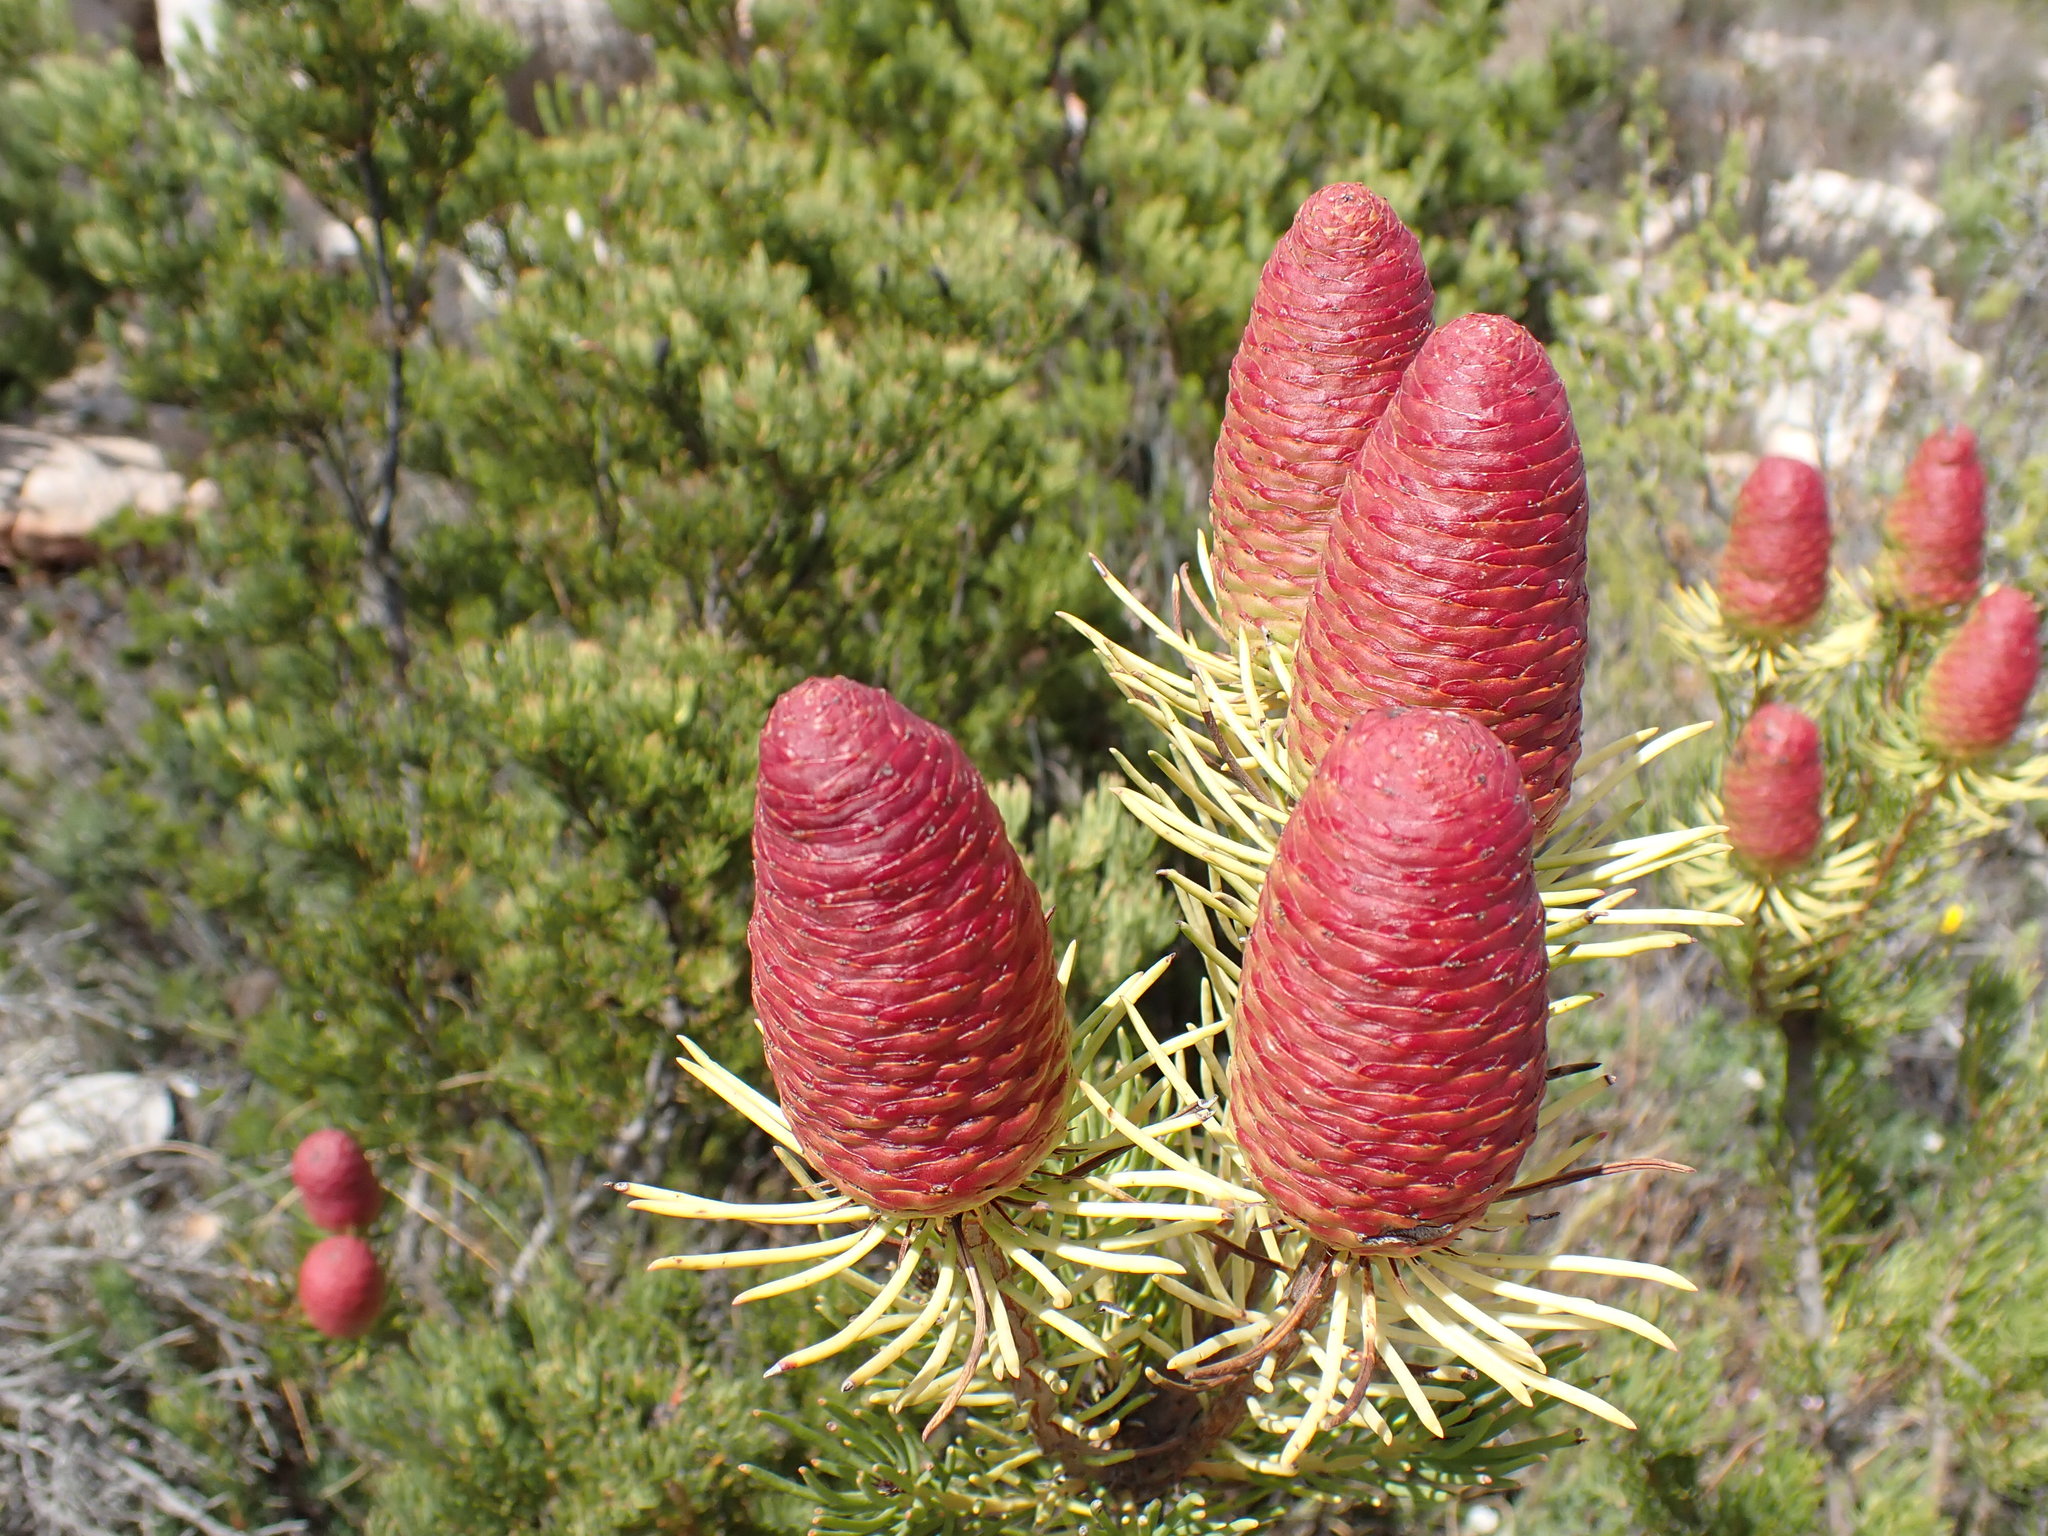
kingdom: Plantae
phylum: Tracheophyta
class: Magnoliopsida
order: Proteales
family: Proteaceae
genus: Leucadendron
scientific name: Leucadendron nobile
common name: Karoo conebush
